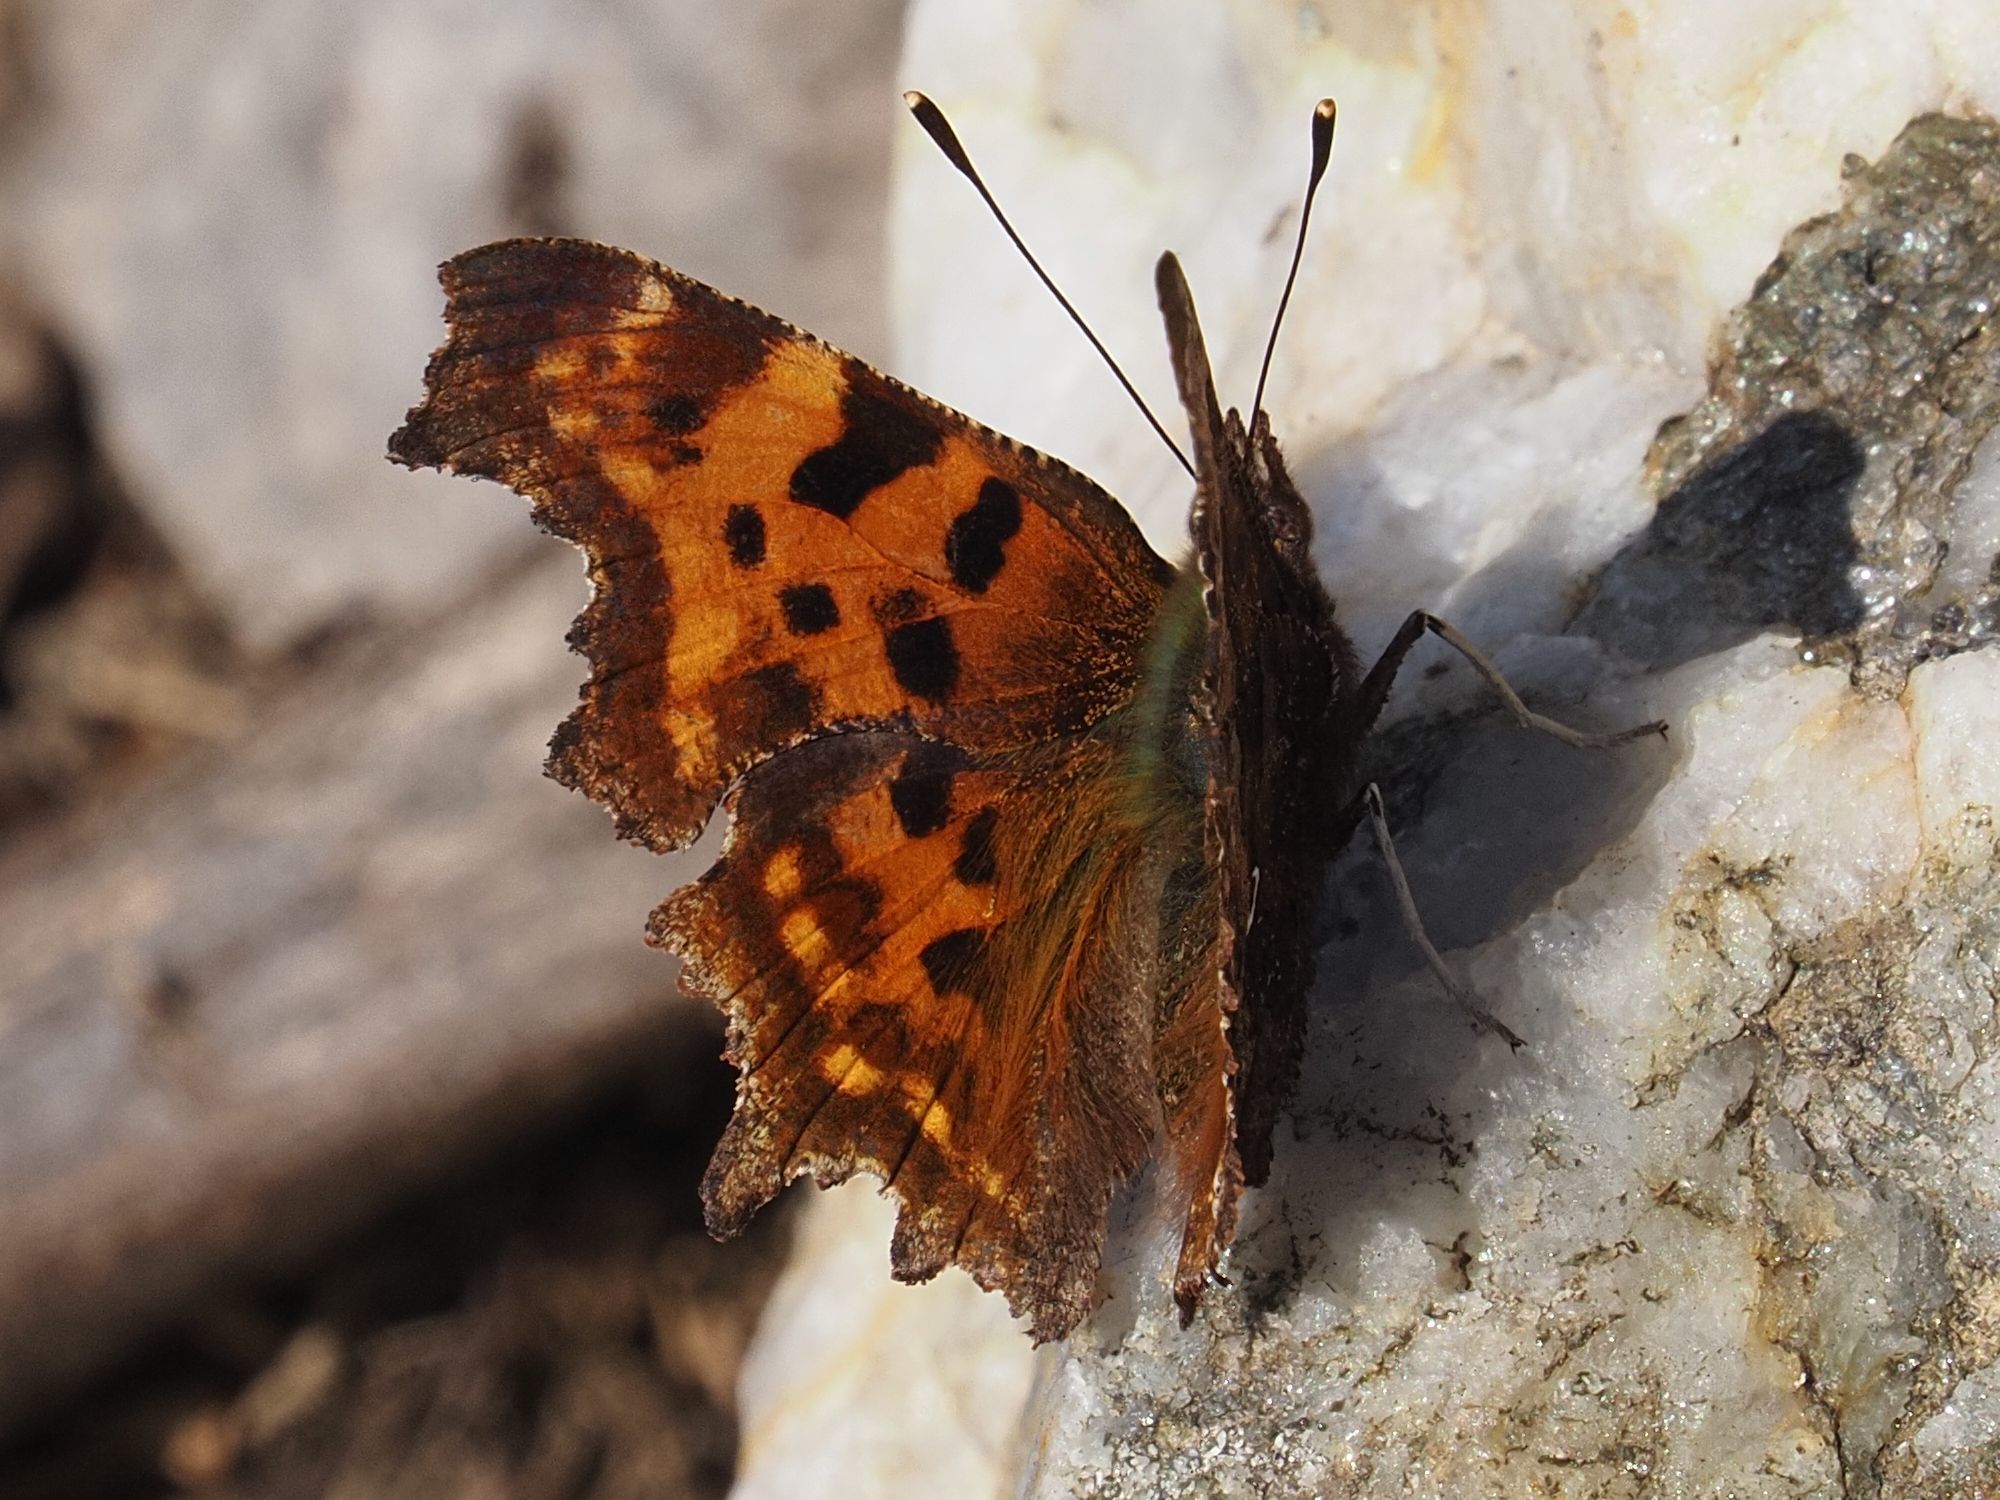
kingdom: Animalia
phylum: Arthropoda
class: Insecta
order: Lepidoptera
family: Nymphalidae
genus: Polygonia
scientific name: Polygonia c-album
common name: Comma
